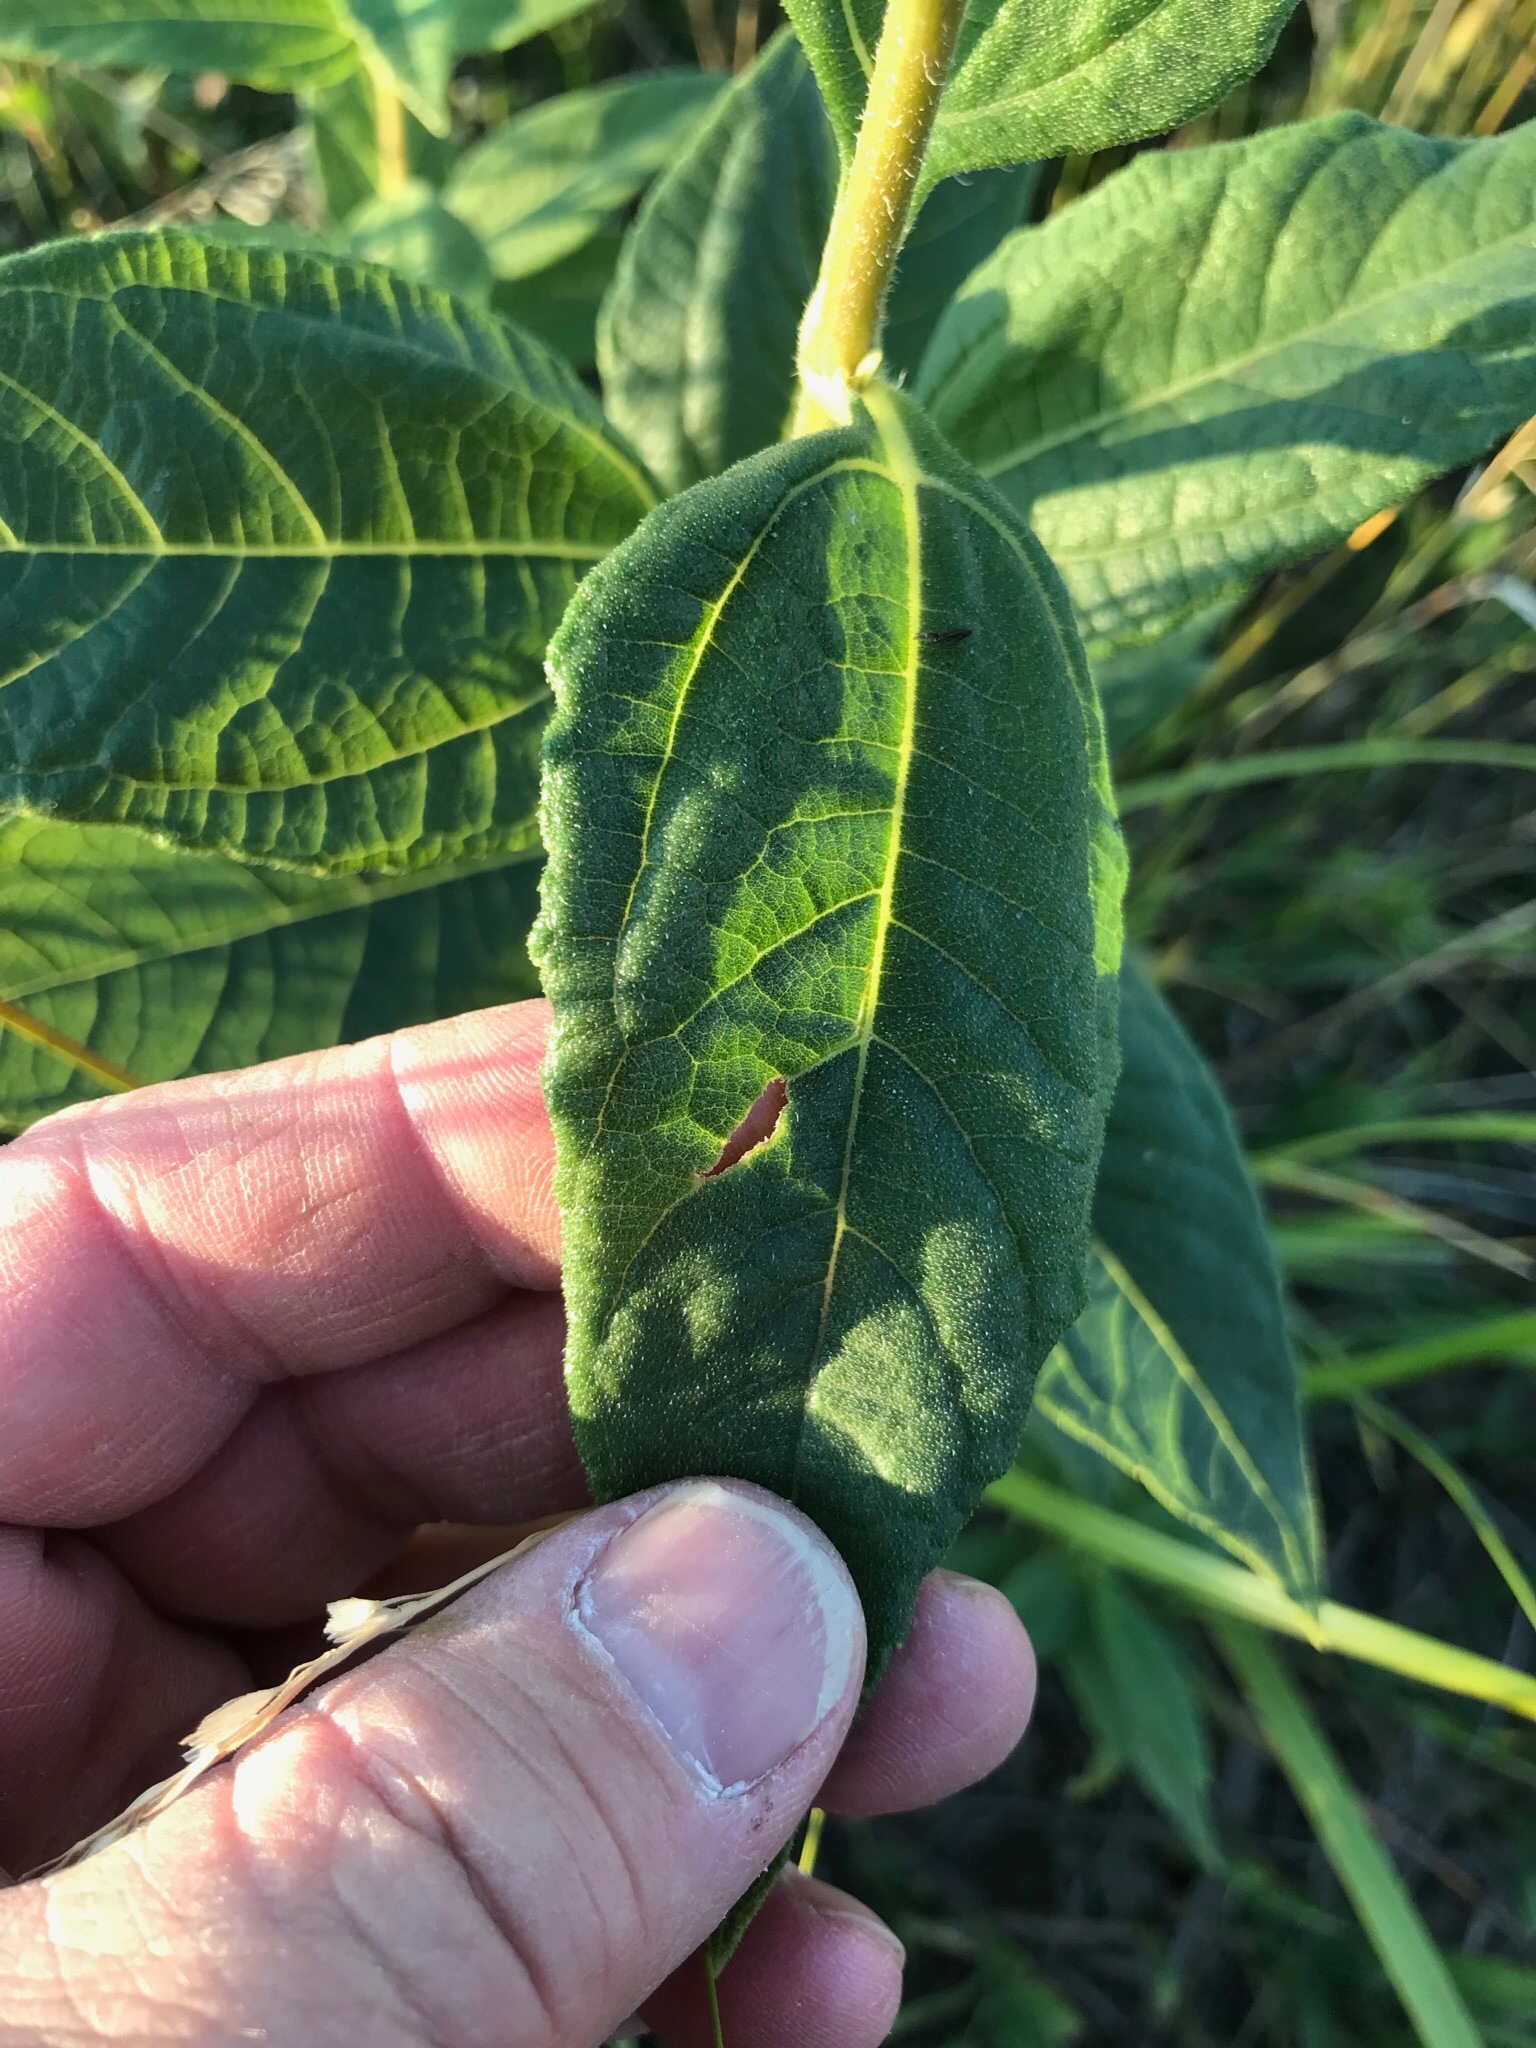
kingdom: Plantae
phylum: Tracheophyta
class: Magnoliopsida
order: Asterales
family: Asteraceae
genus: Helianthus
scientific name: Helianthus tuberosus
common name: Jerusalem artichoke
